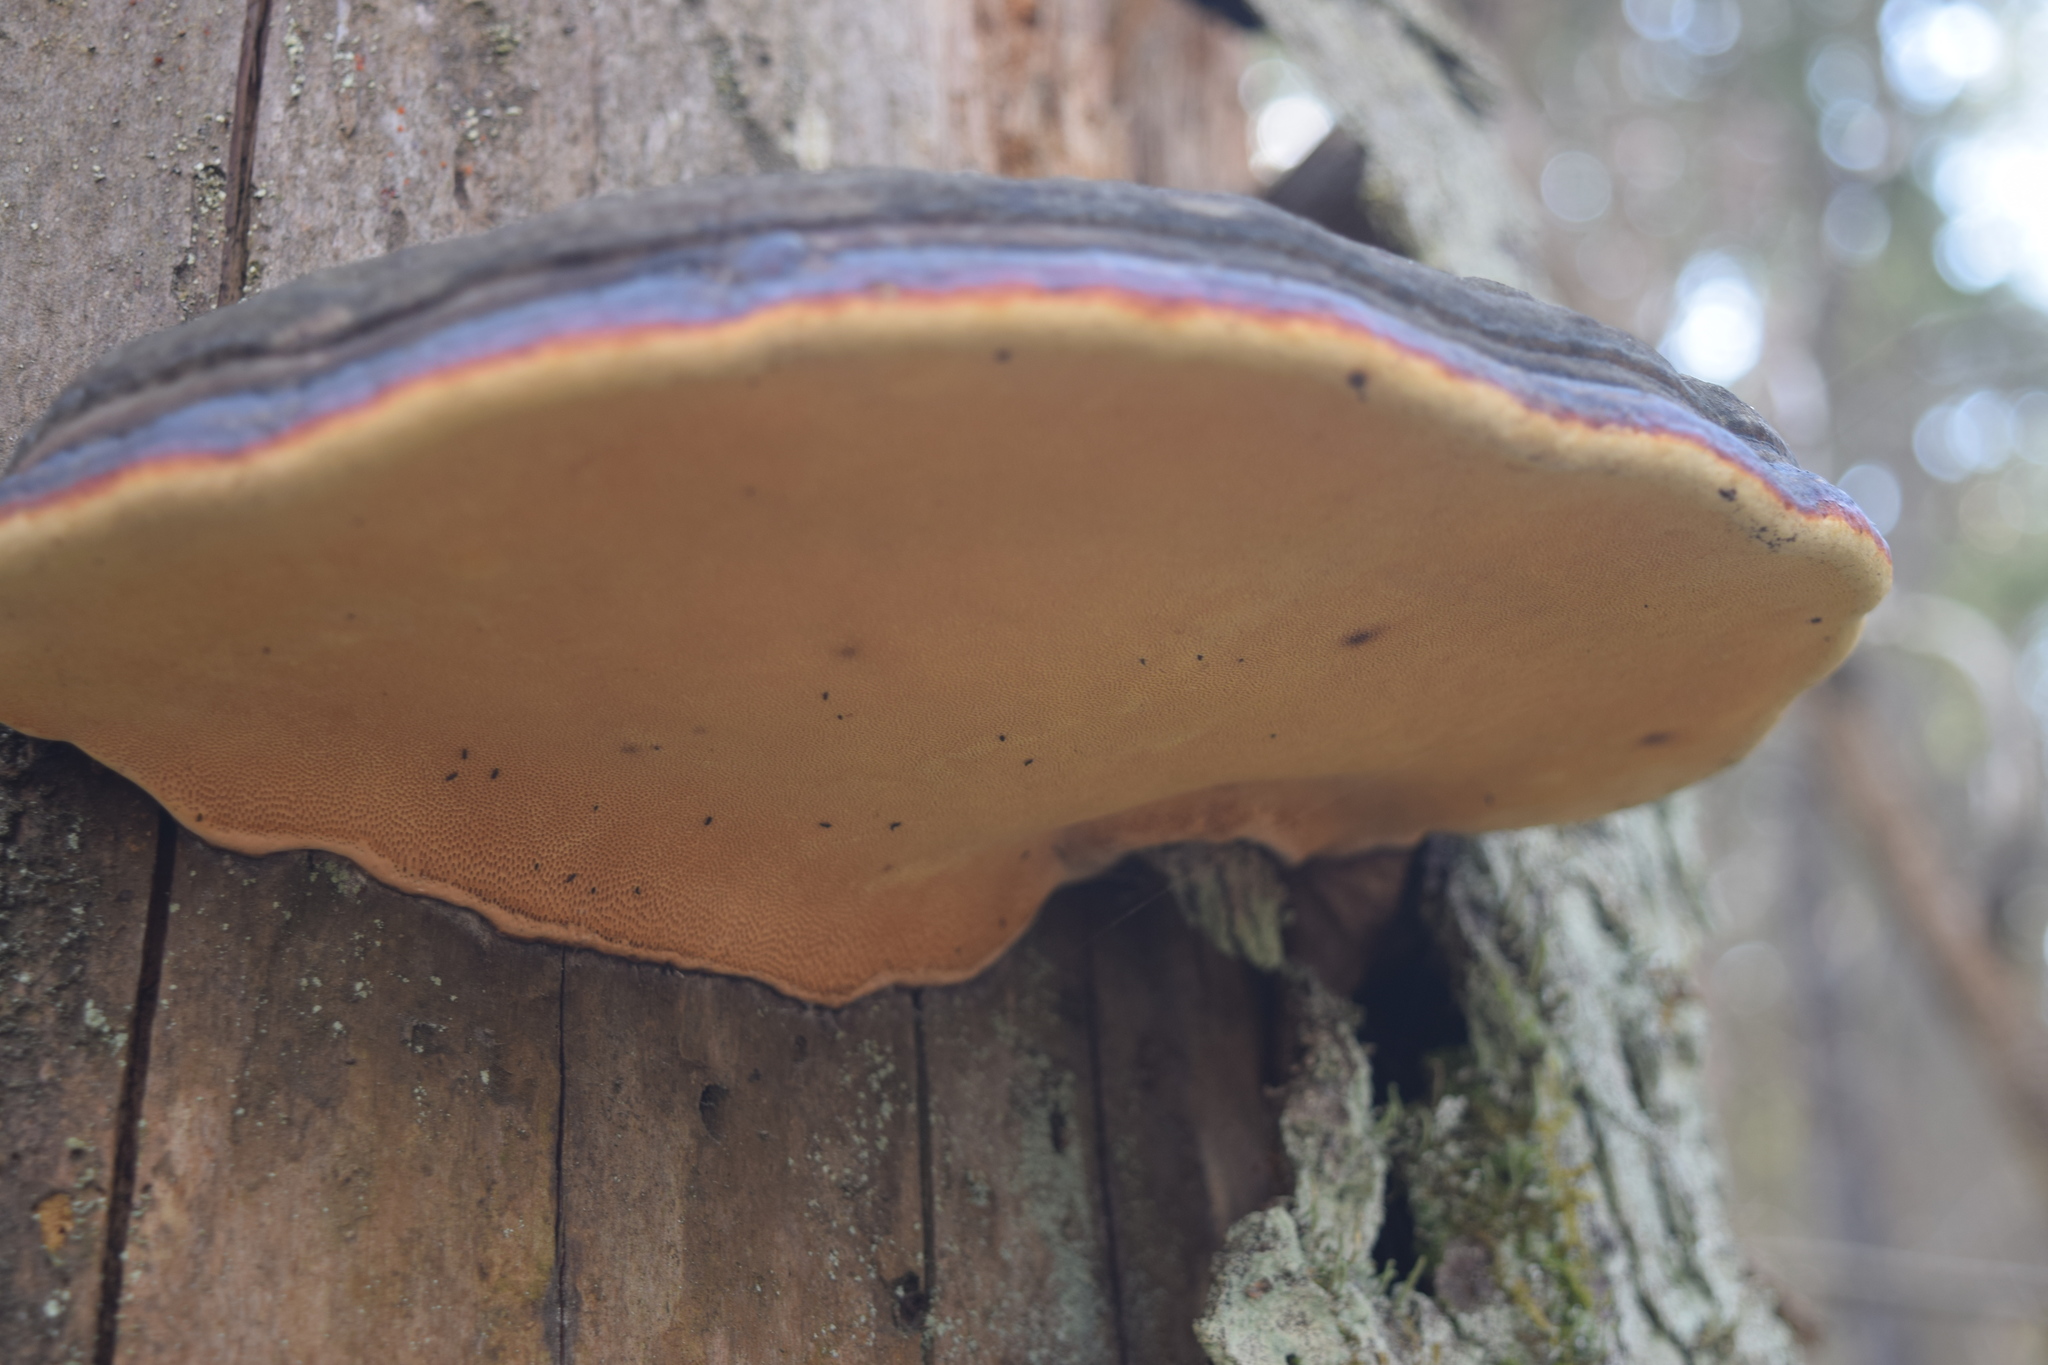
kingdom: Fungi
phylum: Basidiomycota
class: Agaricomycetes
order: Polyporales
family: Fomitopsidaceae
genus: Fomitopsis
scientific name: Fomitopsis pinicola
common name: Red-belted bracket
